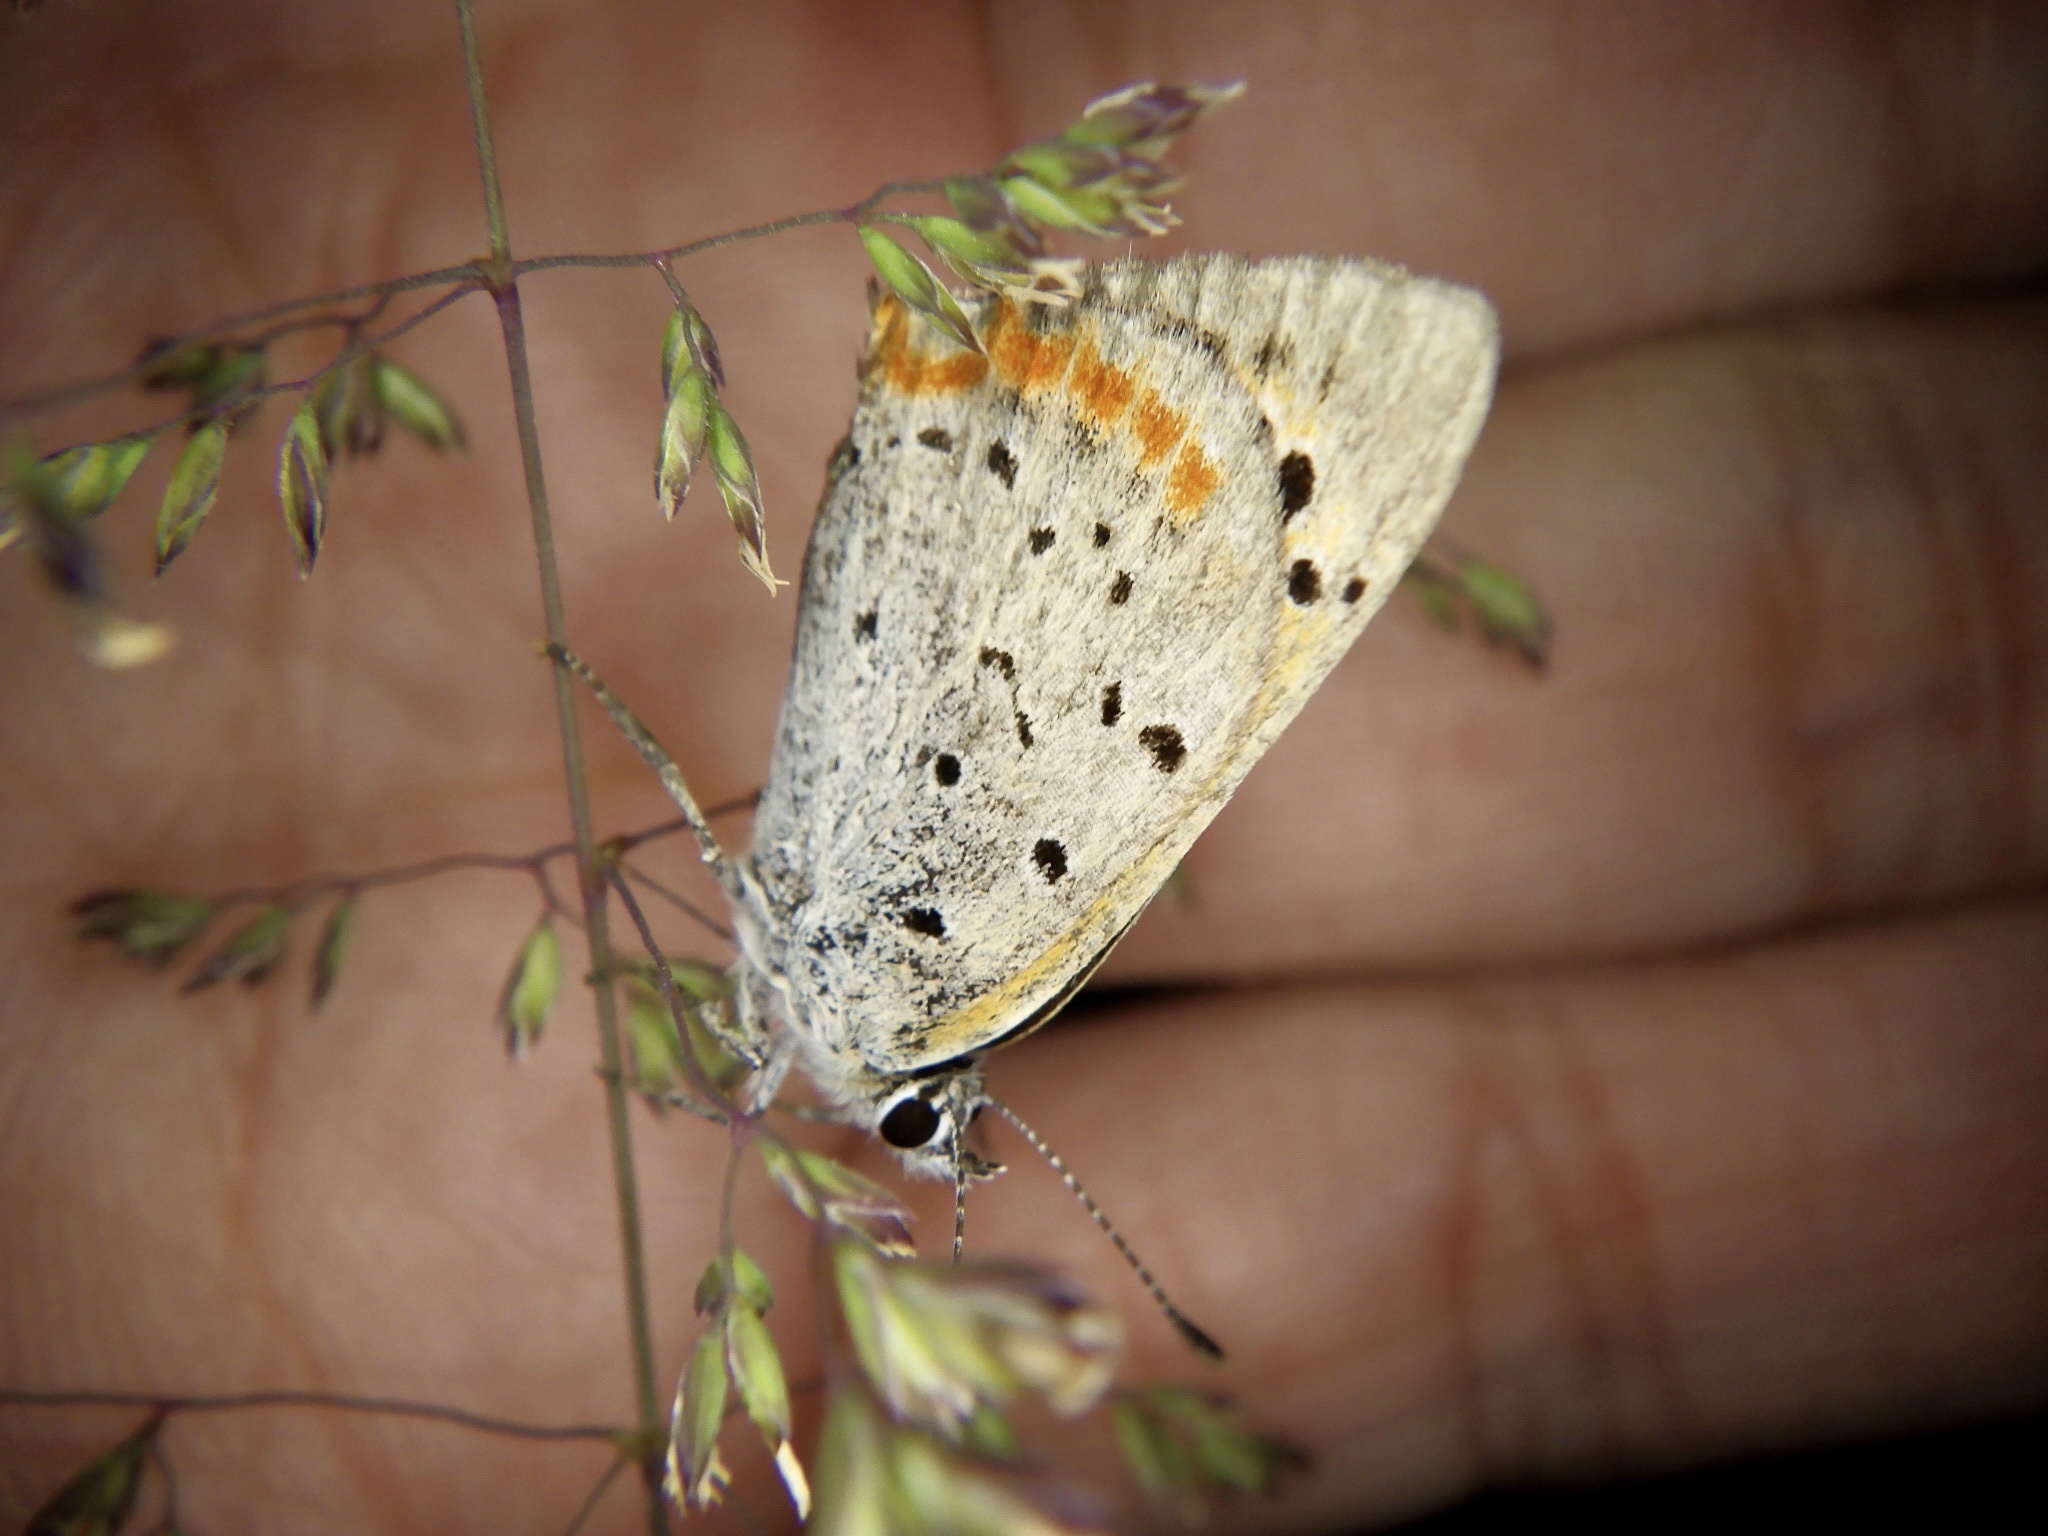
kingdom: Animalia
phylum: Arthropoda
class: Insecta
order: Lepidoptera
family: Lycaenidae
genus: Lycaena
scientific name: Lycaena phlaeas
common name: Small copper
